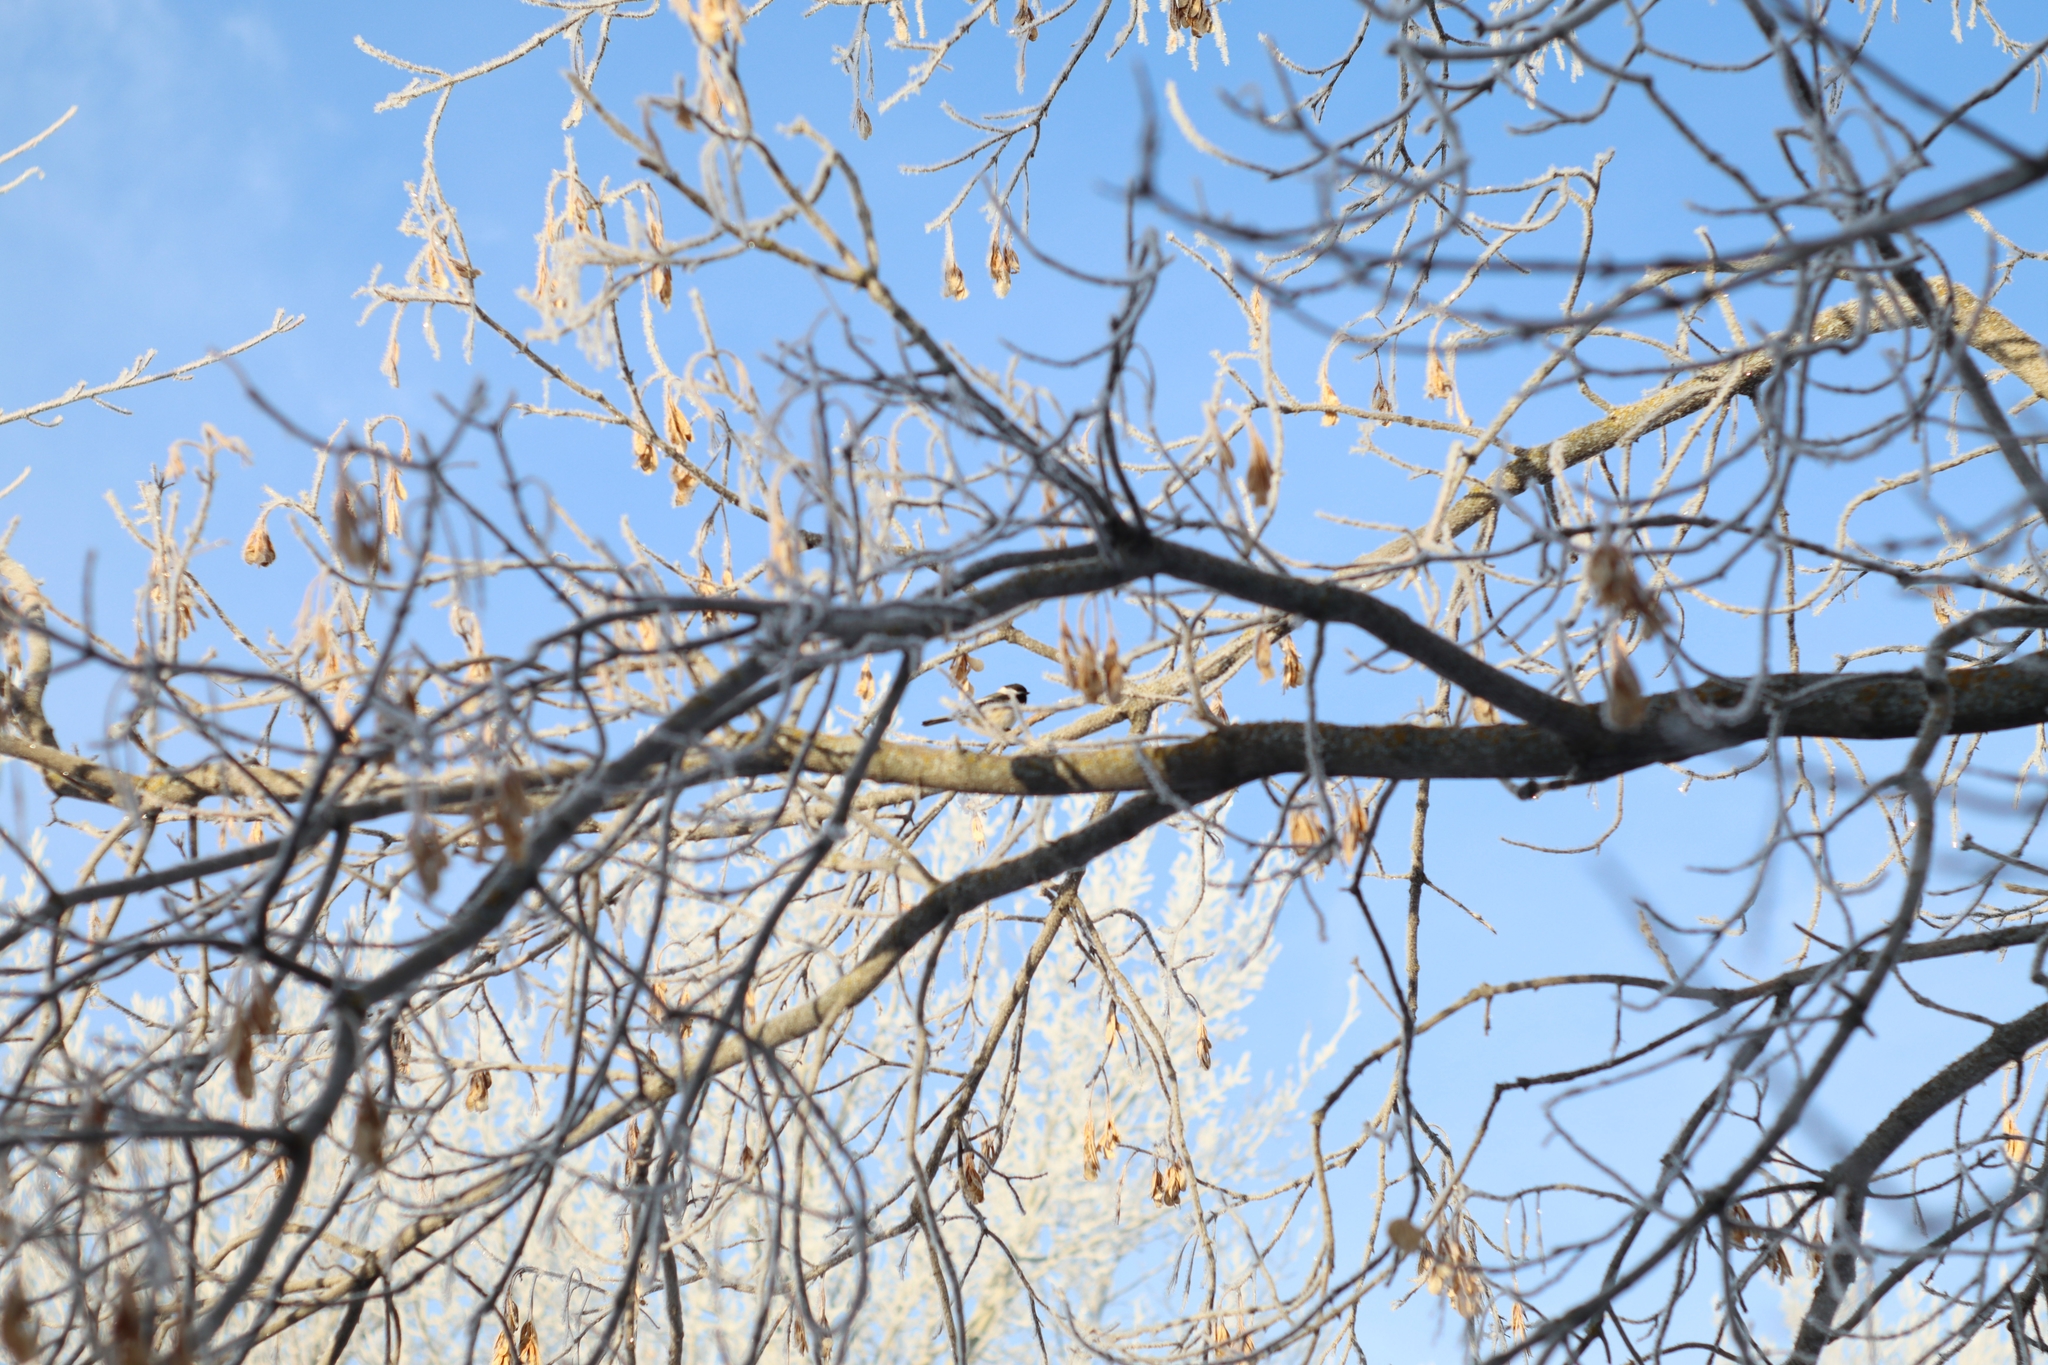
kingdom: Plantae
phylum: Tracheophyta
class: Magnoliopsida
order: Sapindales
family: Sapindaceae
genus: Acer
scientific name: Acer negundo
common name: Ashleaf maple
